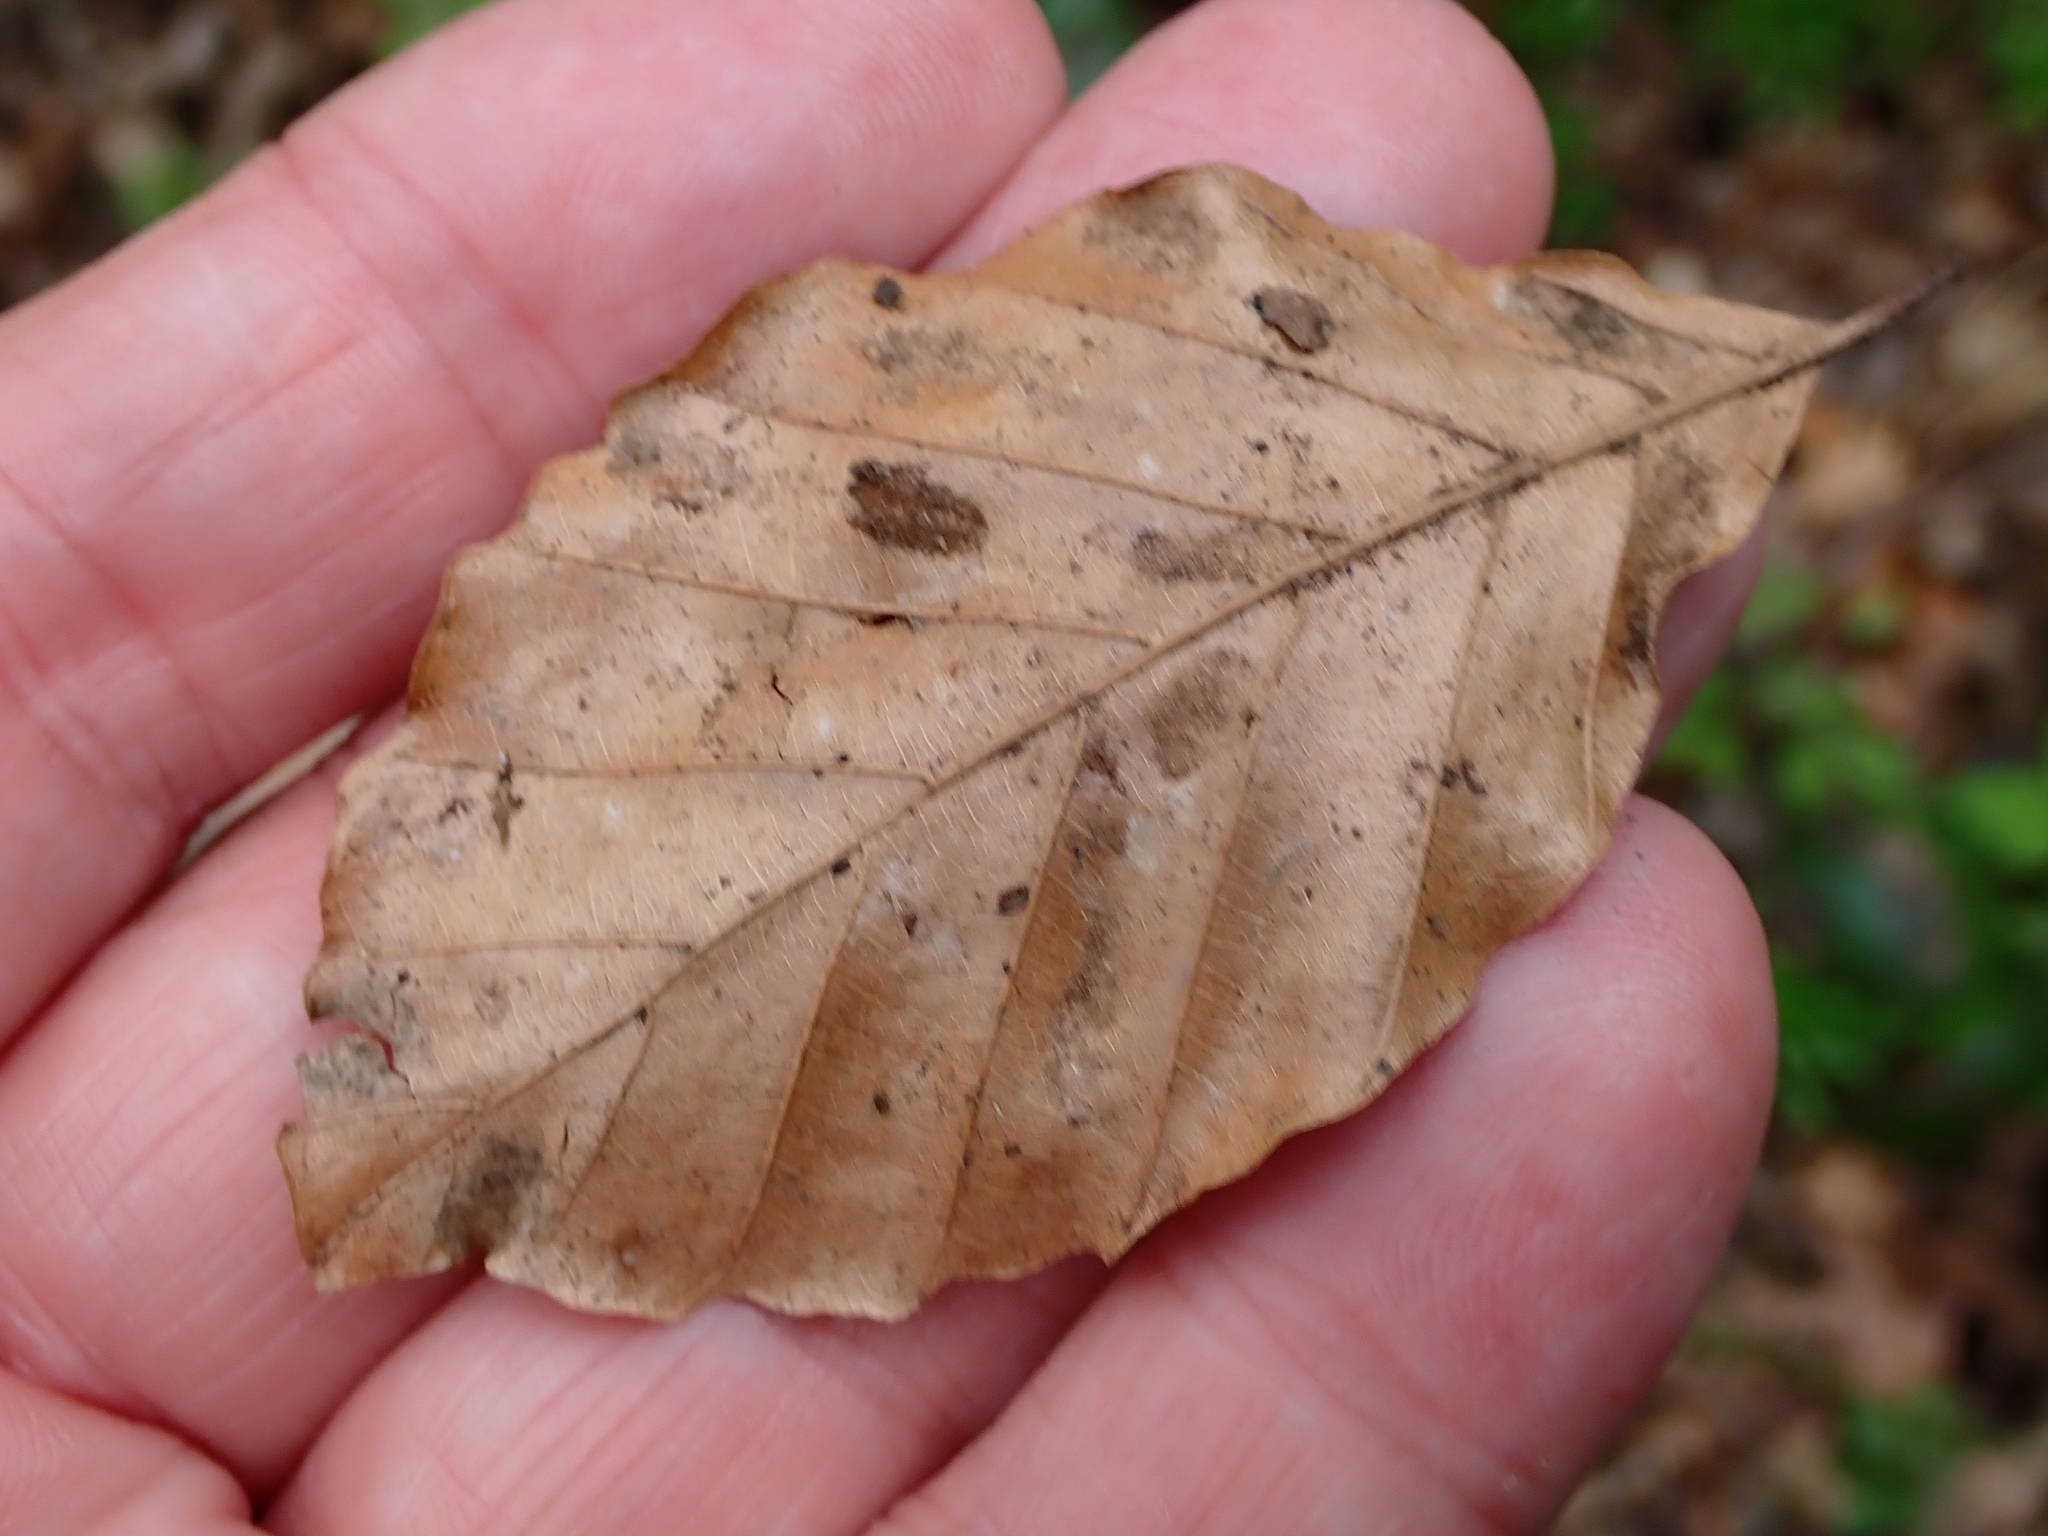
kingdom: Plantae
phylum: Tracheophyta
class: Magnoliopsida
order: Fagales
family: Fagaceae
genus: Fagus
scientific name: Fagus sylvatica
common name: Beech
